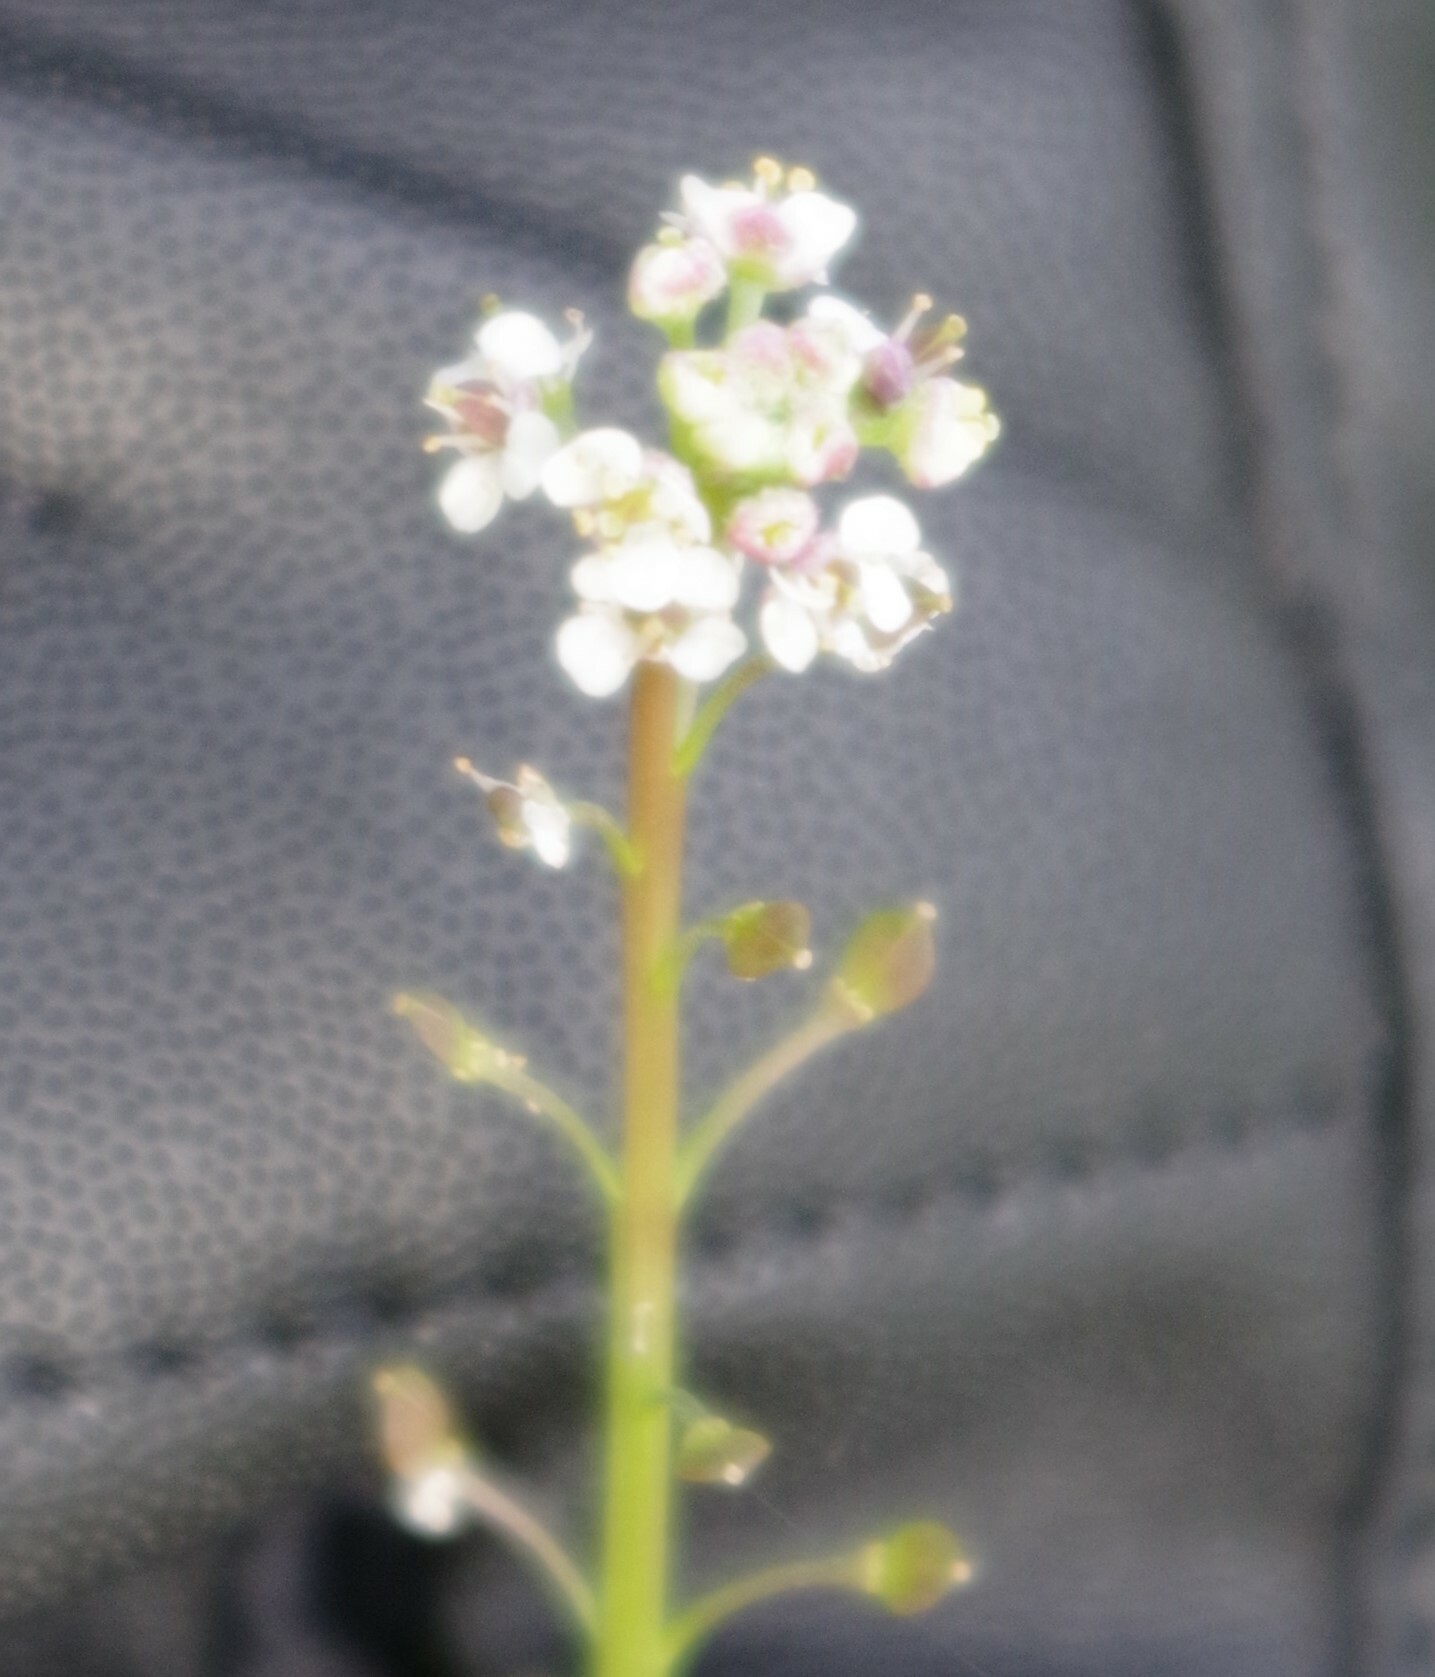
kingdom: Plantae
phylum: Tracheophyta
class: Magnoliopsida
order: Brassicales
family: Brassicaceae
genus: Lepidium
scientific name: Lepidium graminifolium
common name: Tall pepperwort
